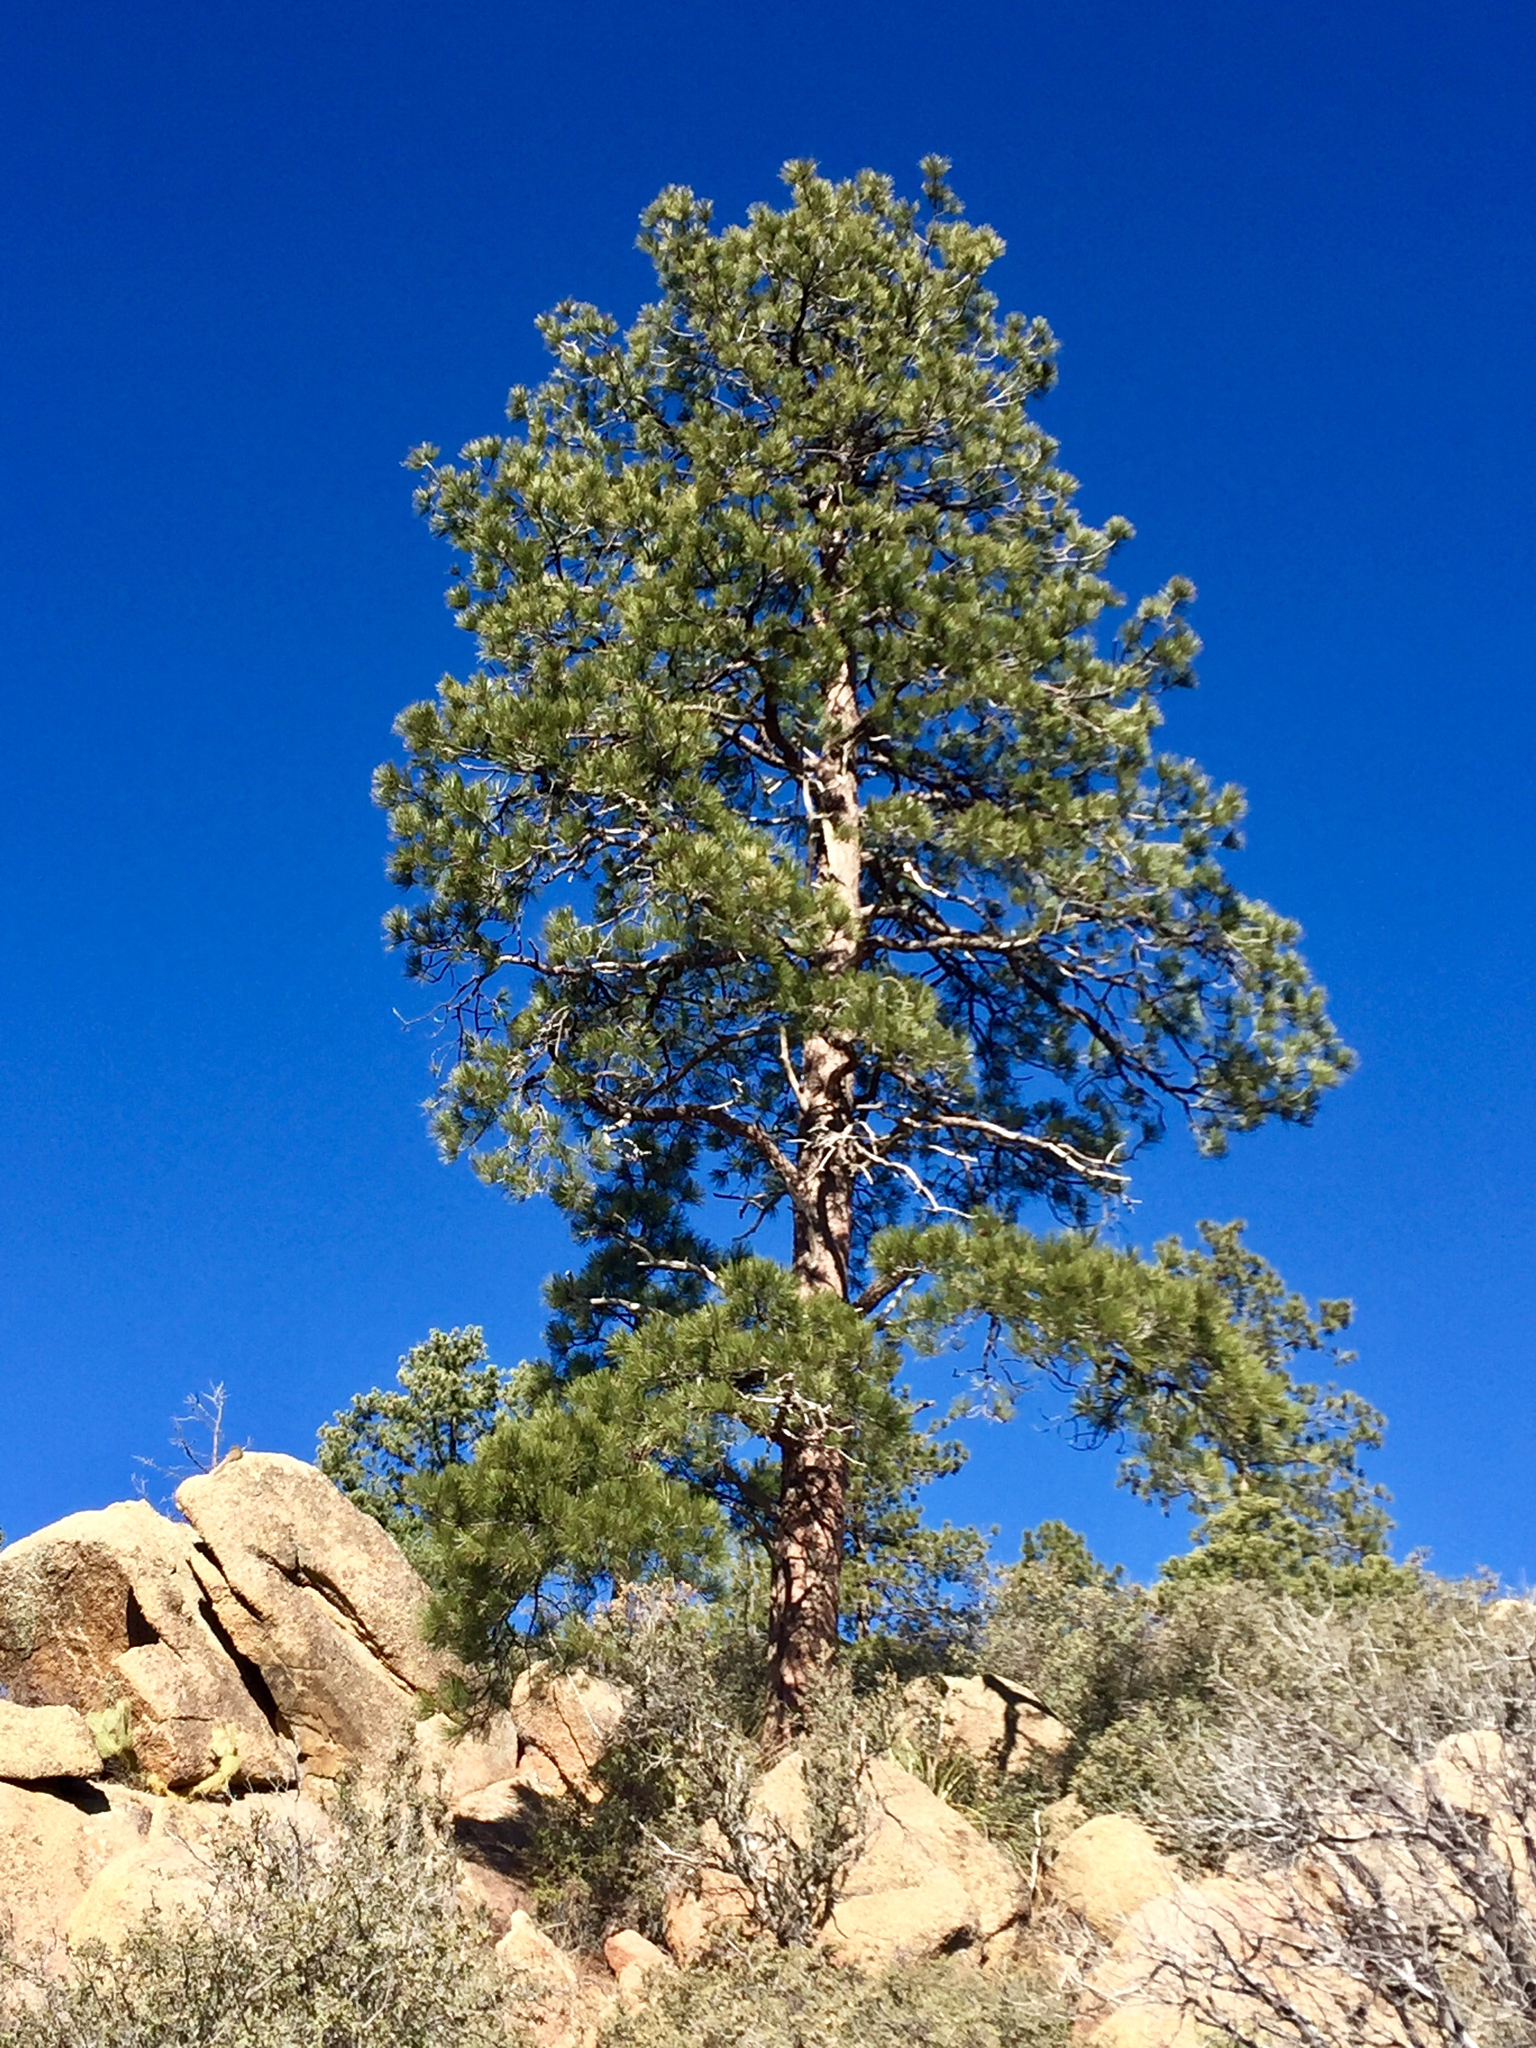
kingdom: Plantae
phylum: Tracheophyta
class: Pinopsida
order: Pinales
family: Pinaceae
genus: Pinus
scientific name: Pinus ponderosa
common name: Western yellow-pine
